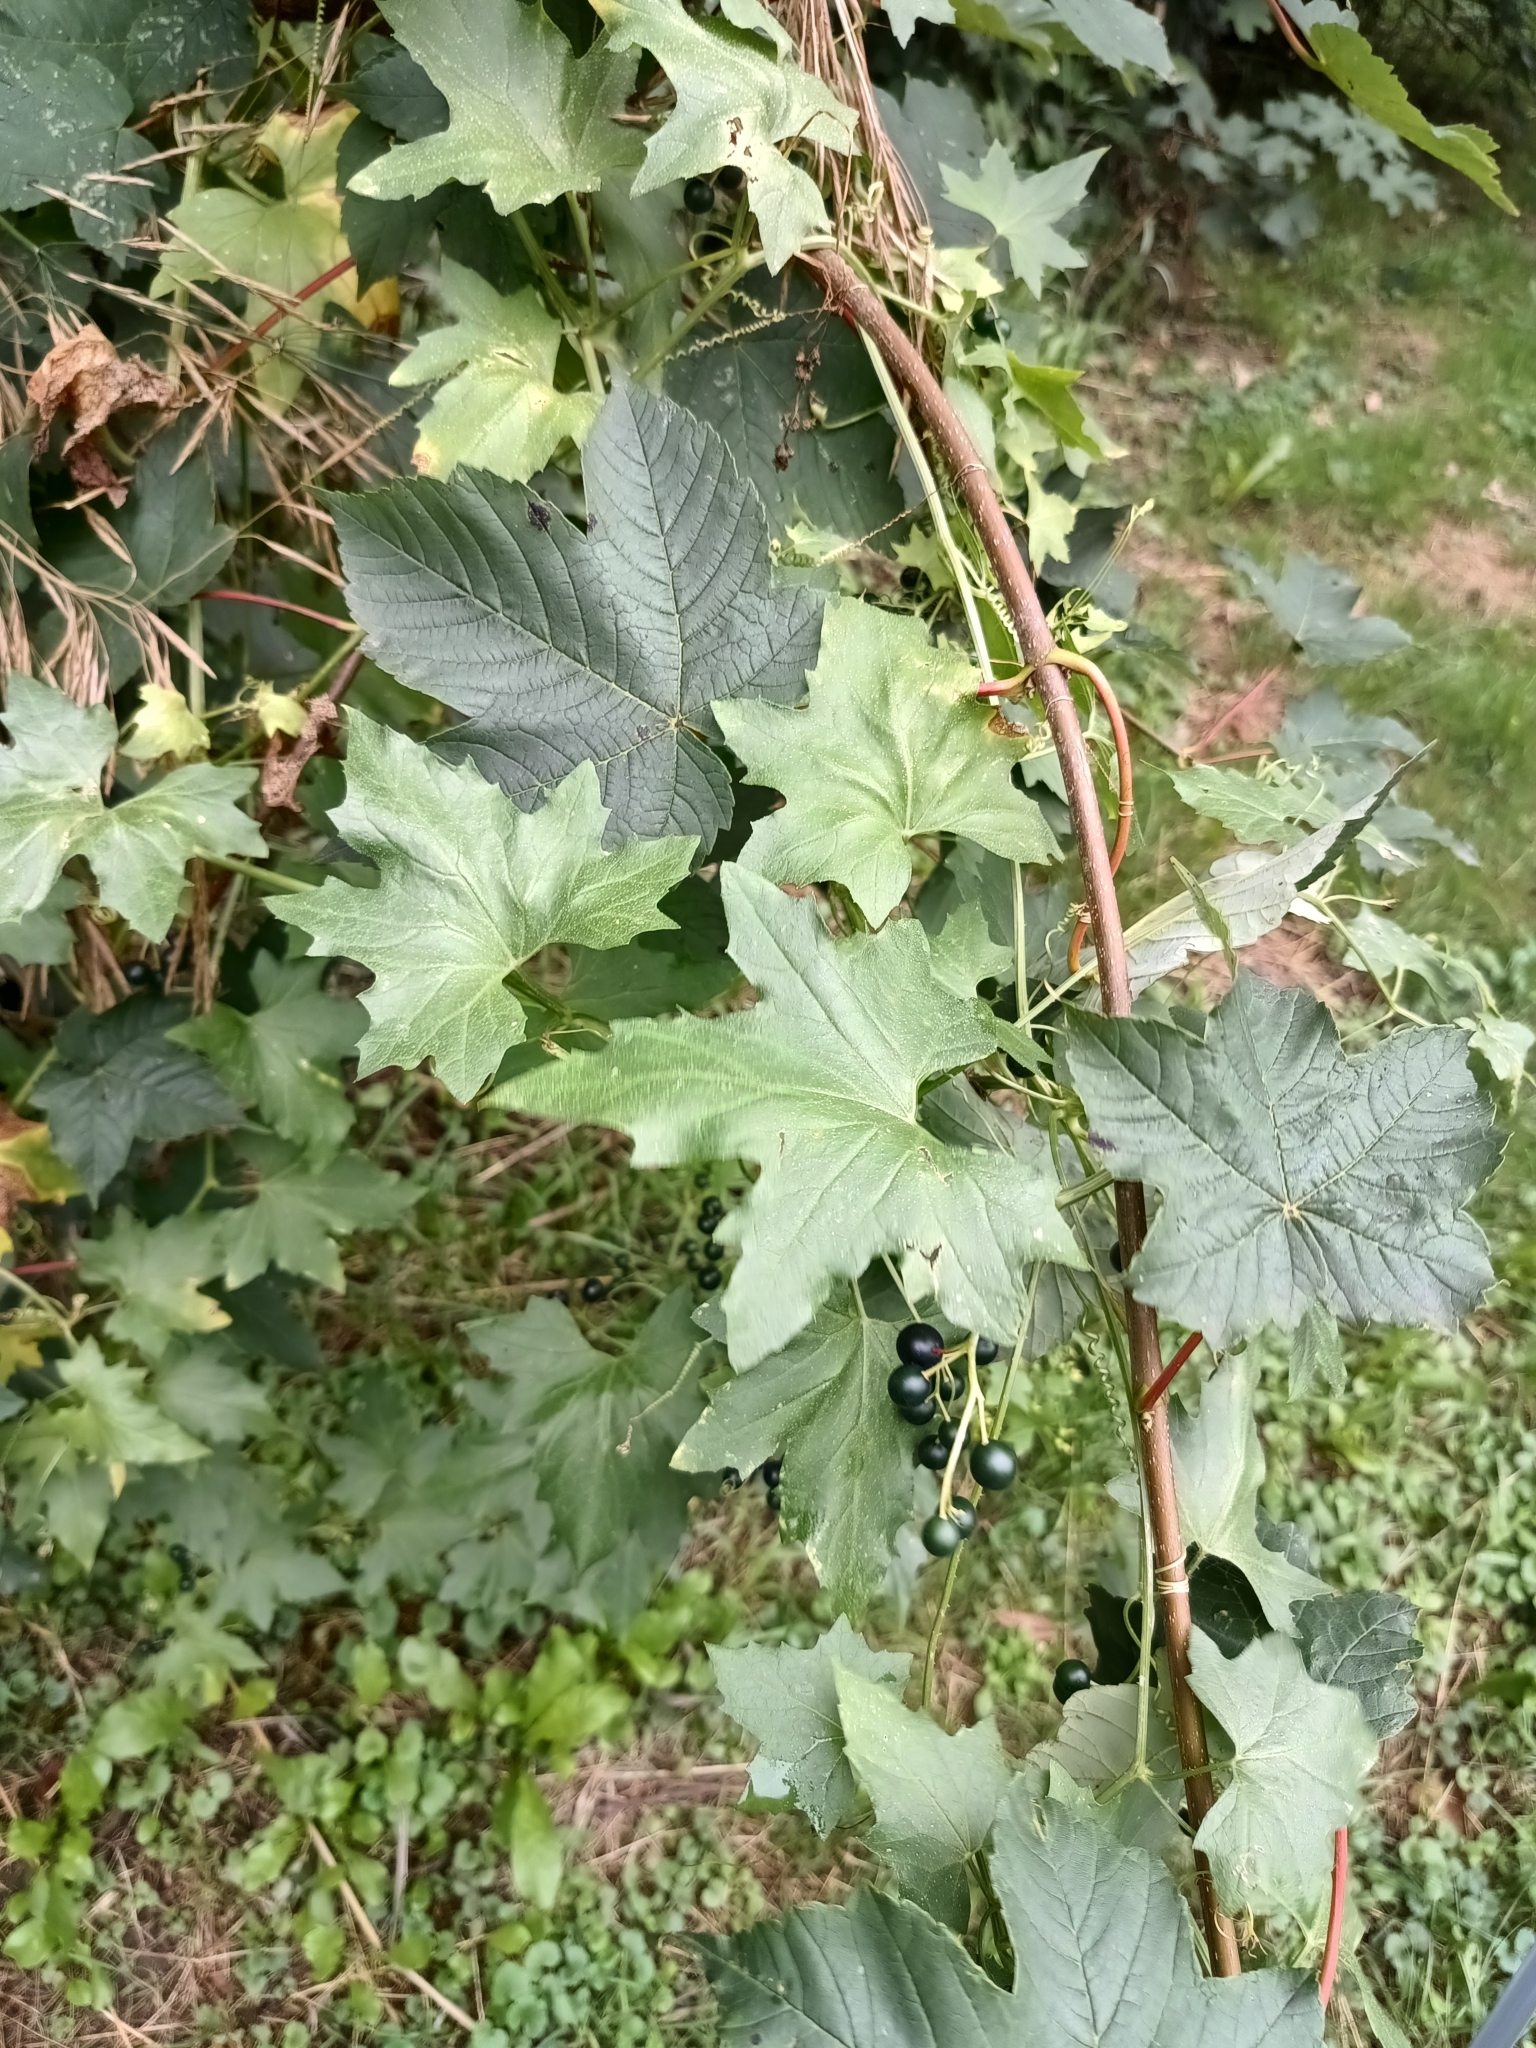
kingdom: Plantae
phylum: Tracheophyta
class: Magnoliopsida
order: Cucurbitales
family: Cucurbitaceae
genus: Bryonia
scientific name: Bryonia alba
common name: White bryony
